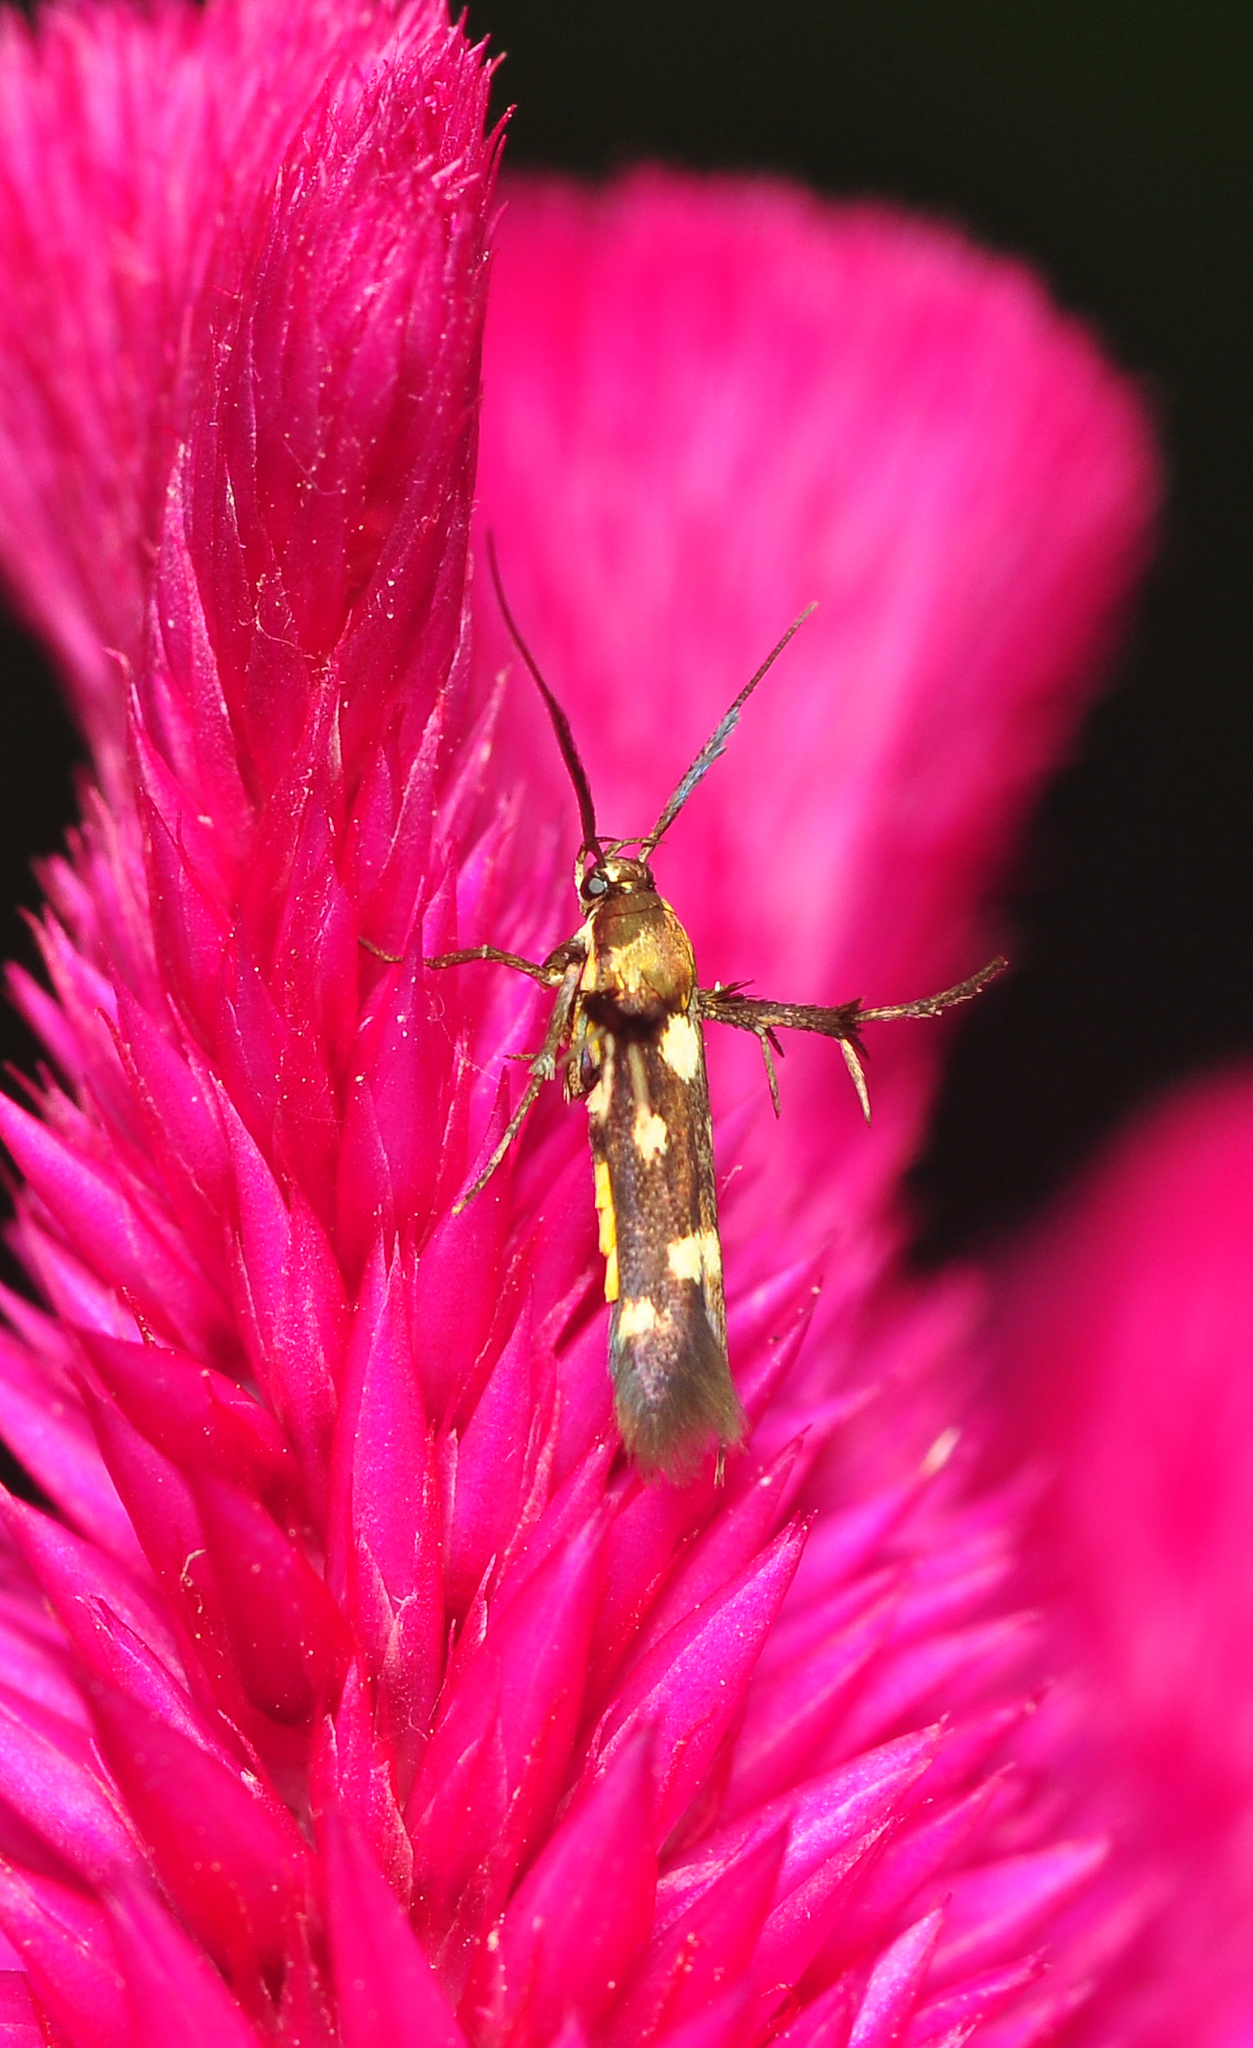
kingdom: Animalia
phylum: Arthropoda
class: Insecta
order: Lepidoptera
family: Scythrididae
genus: Eretmocera
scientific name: Eretmocera impactella
